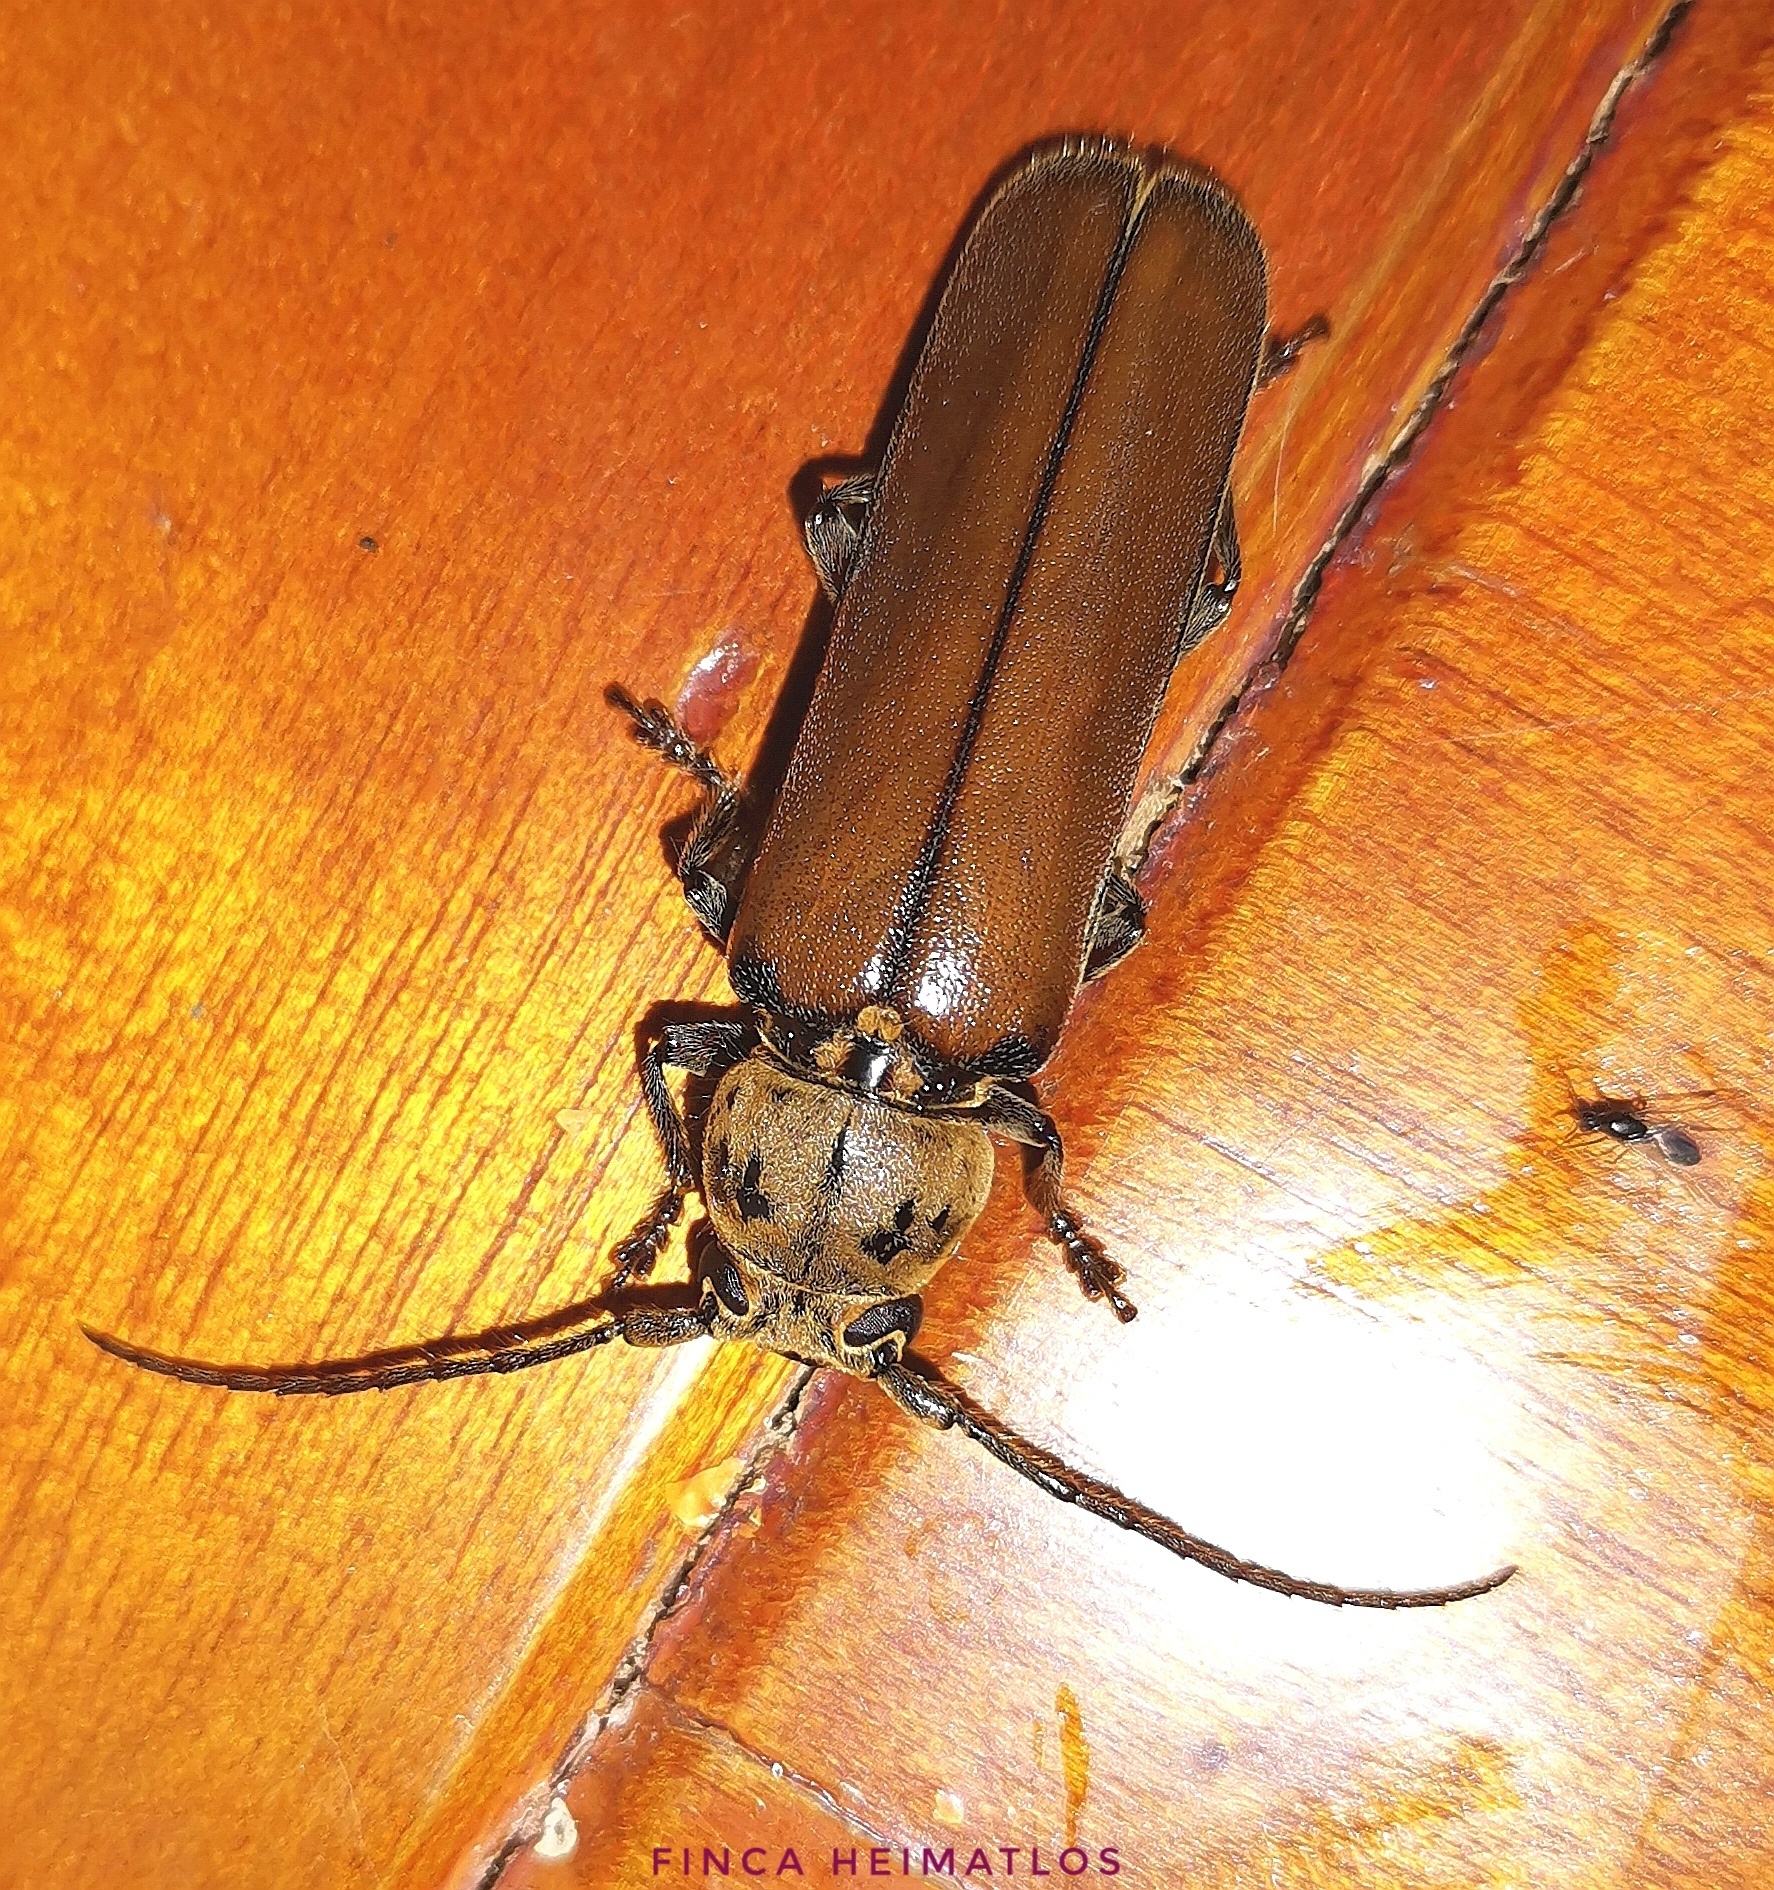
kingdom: Animalia
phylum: Arthropoda
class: Insecta
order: Coleoptera
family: Cerambycidae
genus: Diploschema
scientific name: Diploschema weyrauchi
